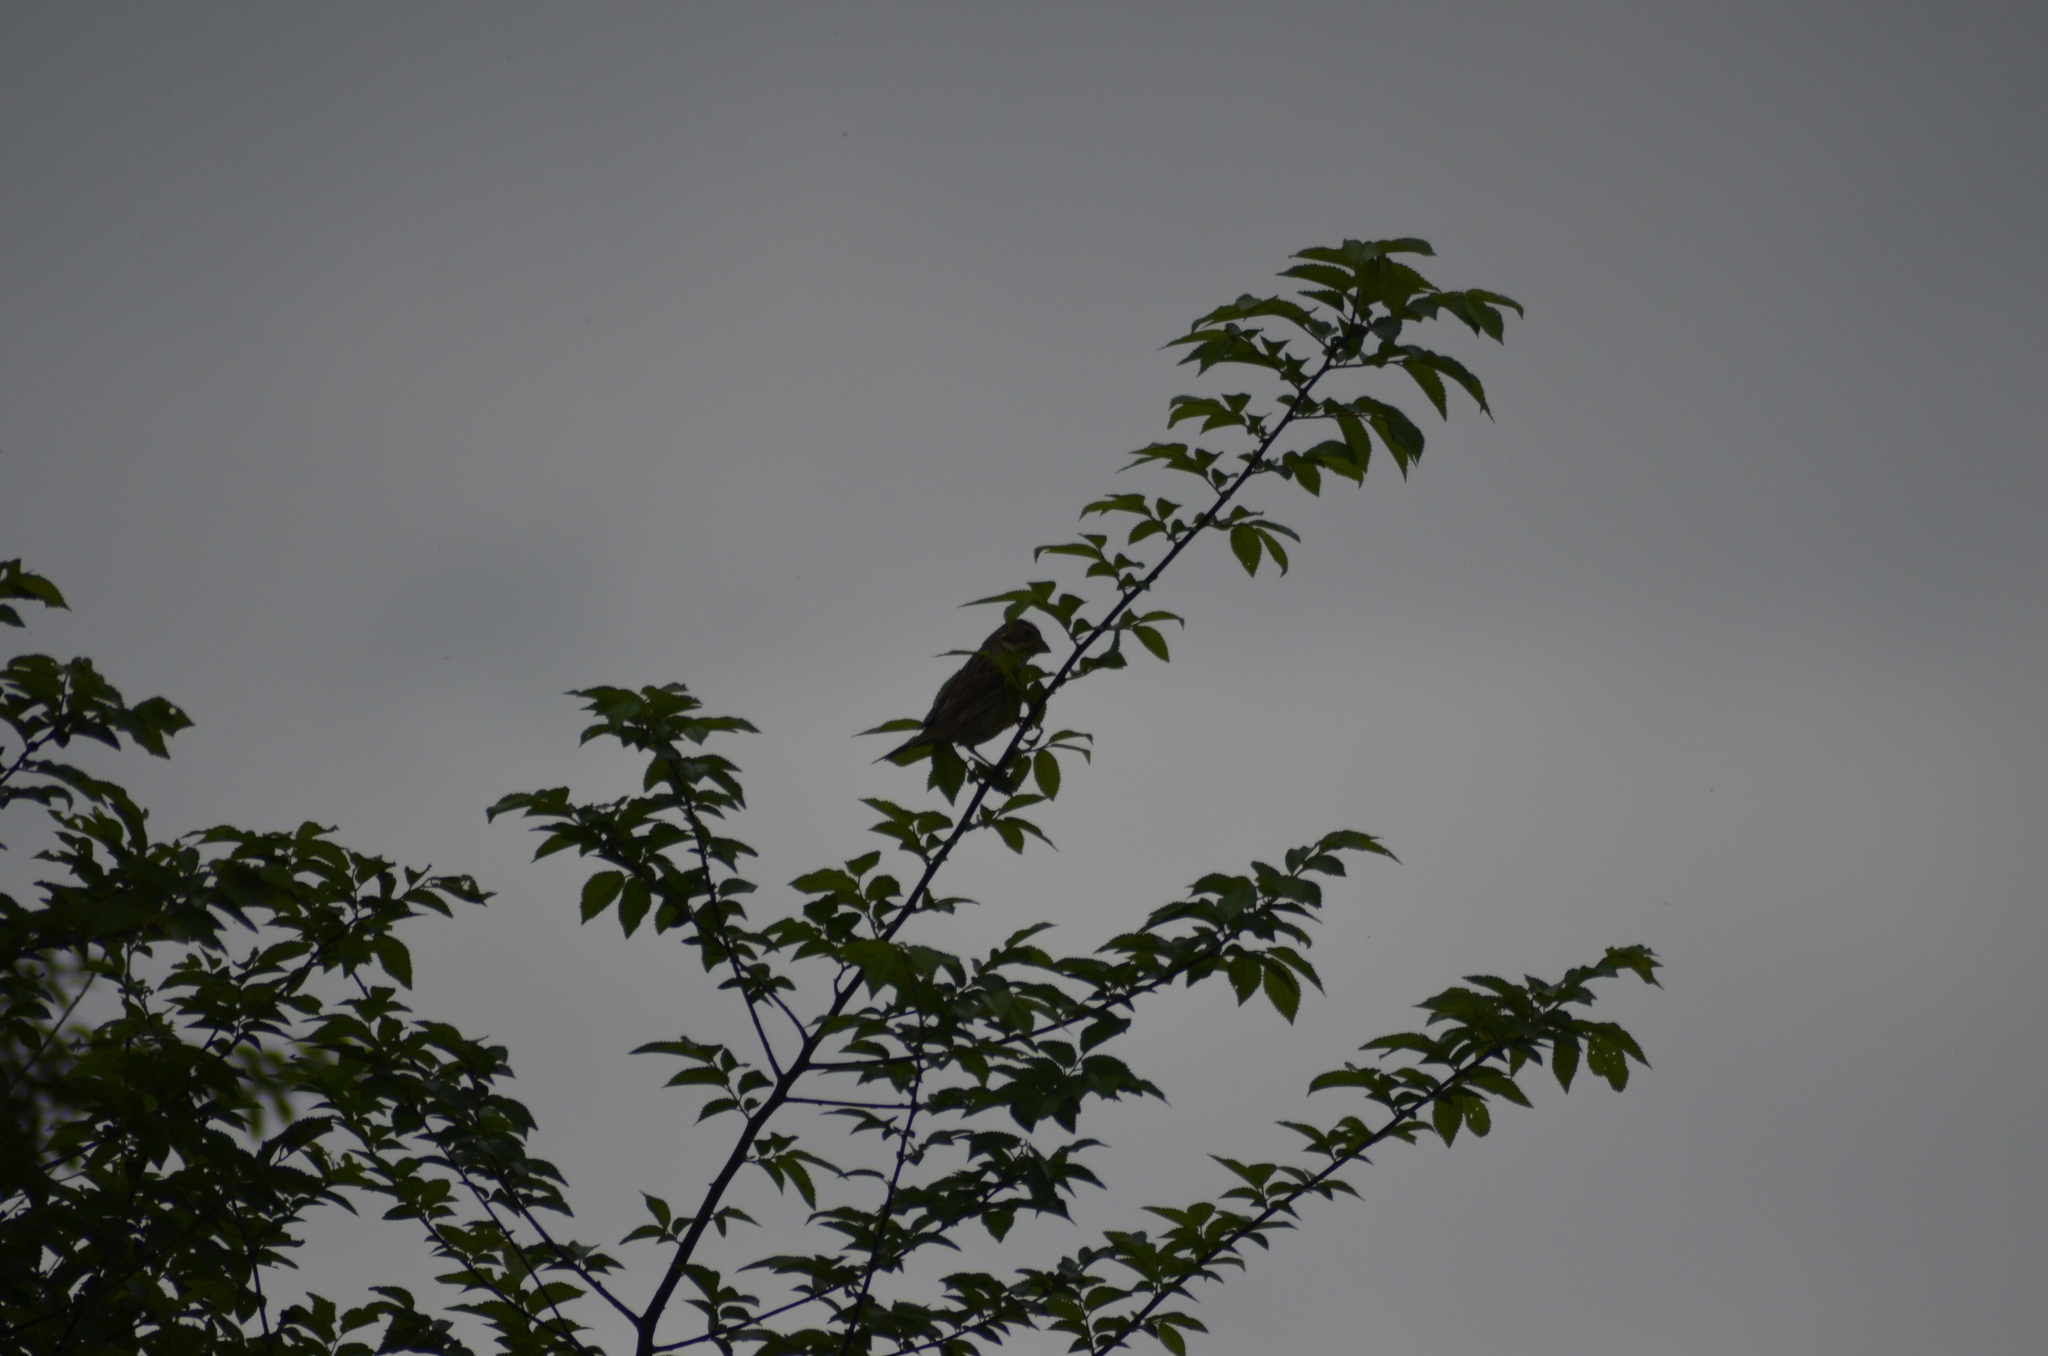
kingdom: Animalia
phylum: Chordata
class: Aves
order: Passeriformes
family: Emberizidae
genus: Emberiza
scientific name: Emberiza calandra
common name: Corn bunting
